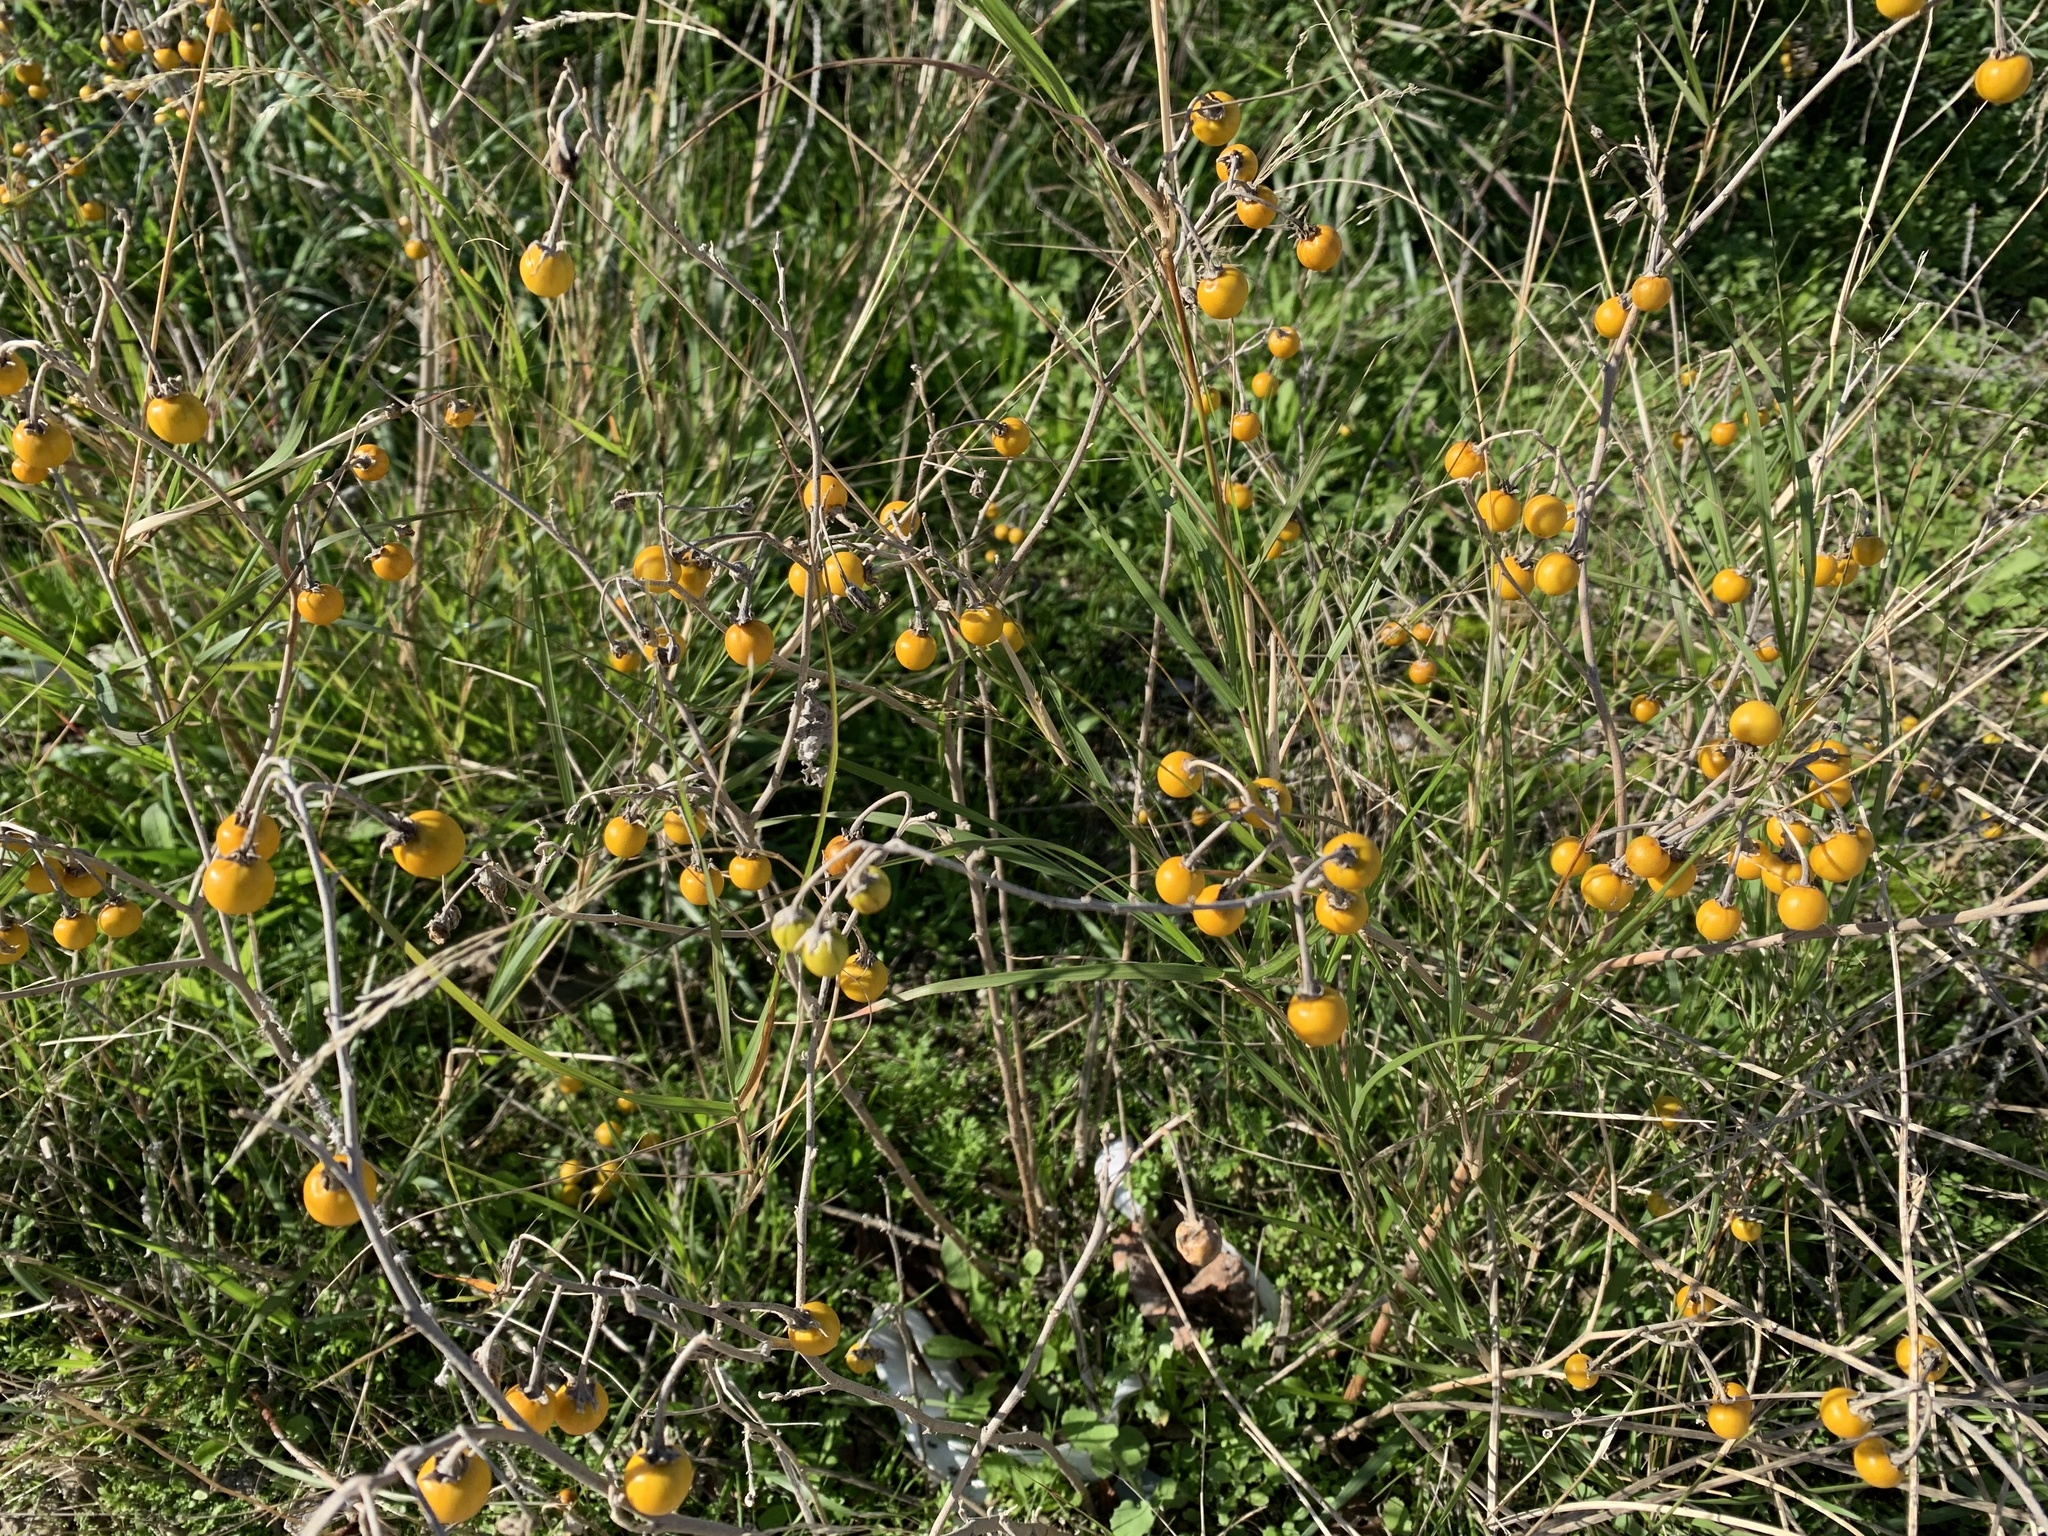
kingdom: Plantae
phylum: Tracheophyta
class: Magnoliopsida
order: Solanales
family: Solanaceae
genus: Solanum
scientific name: Solanum elaeagnifolium
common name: Silverleaf nightshade
